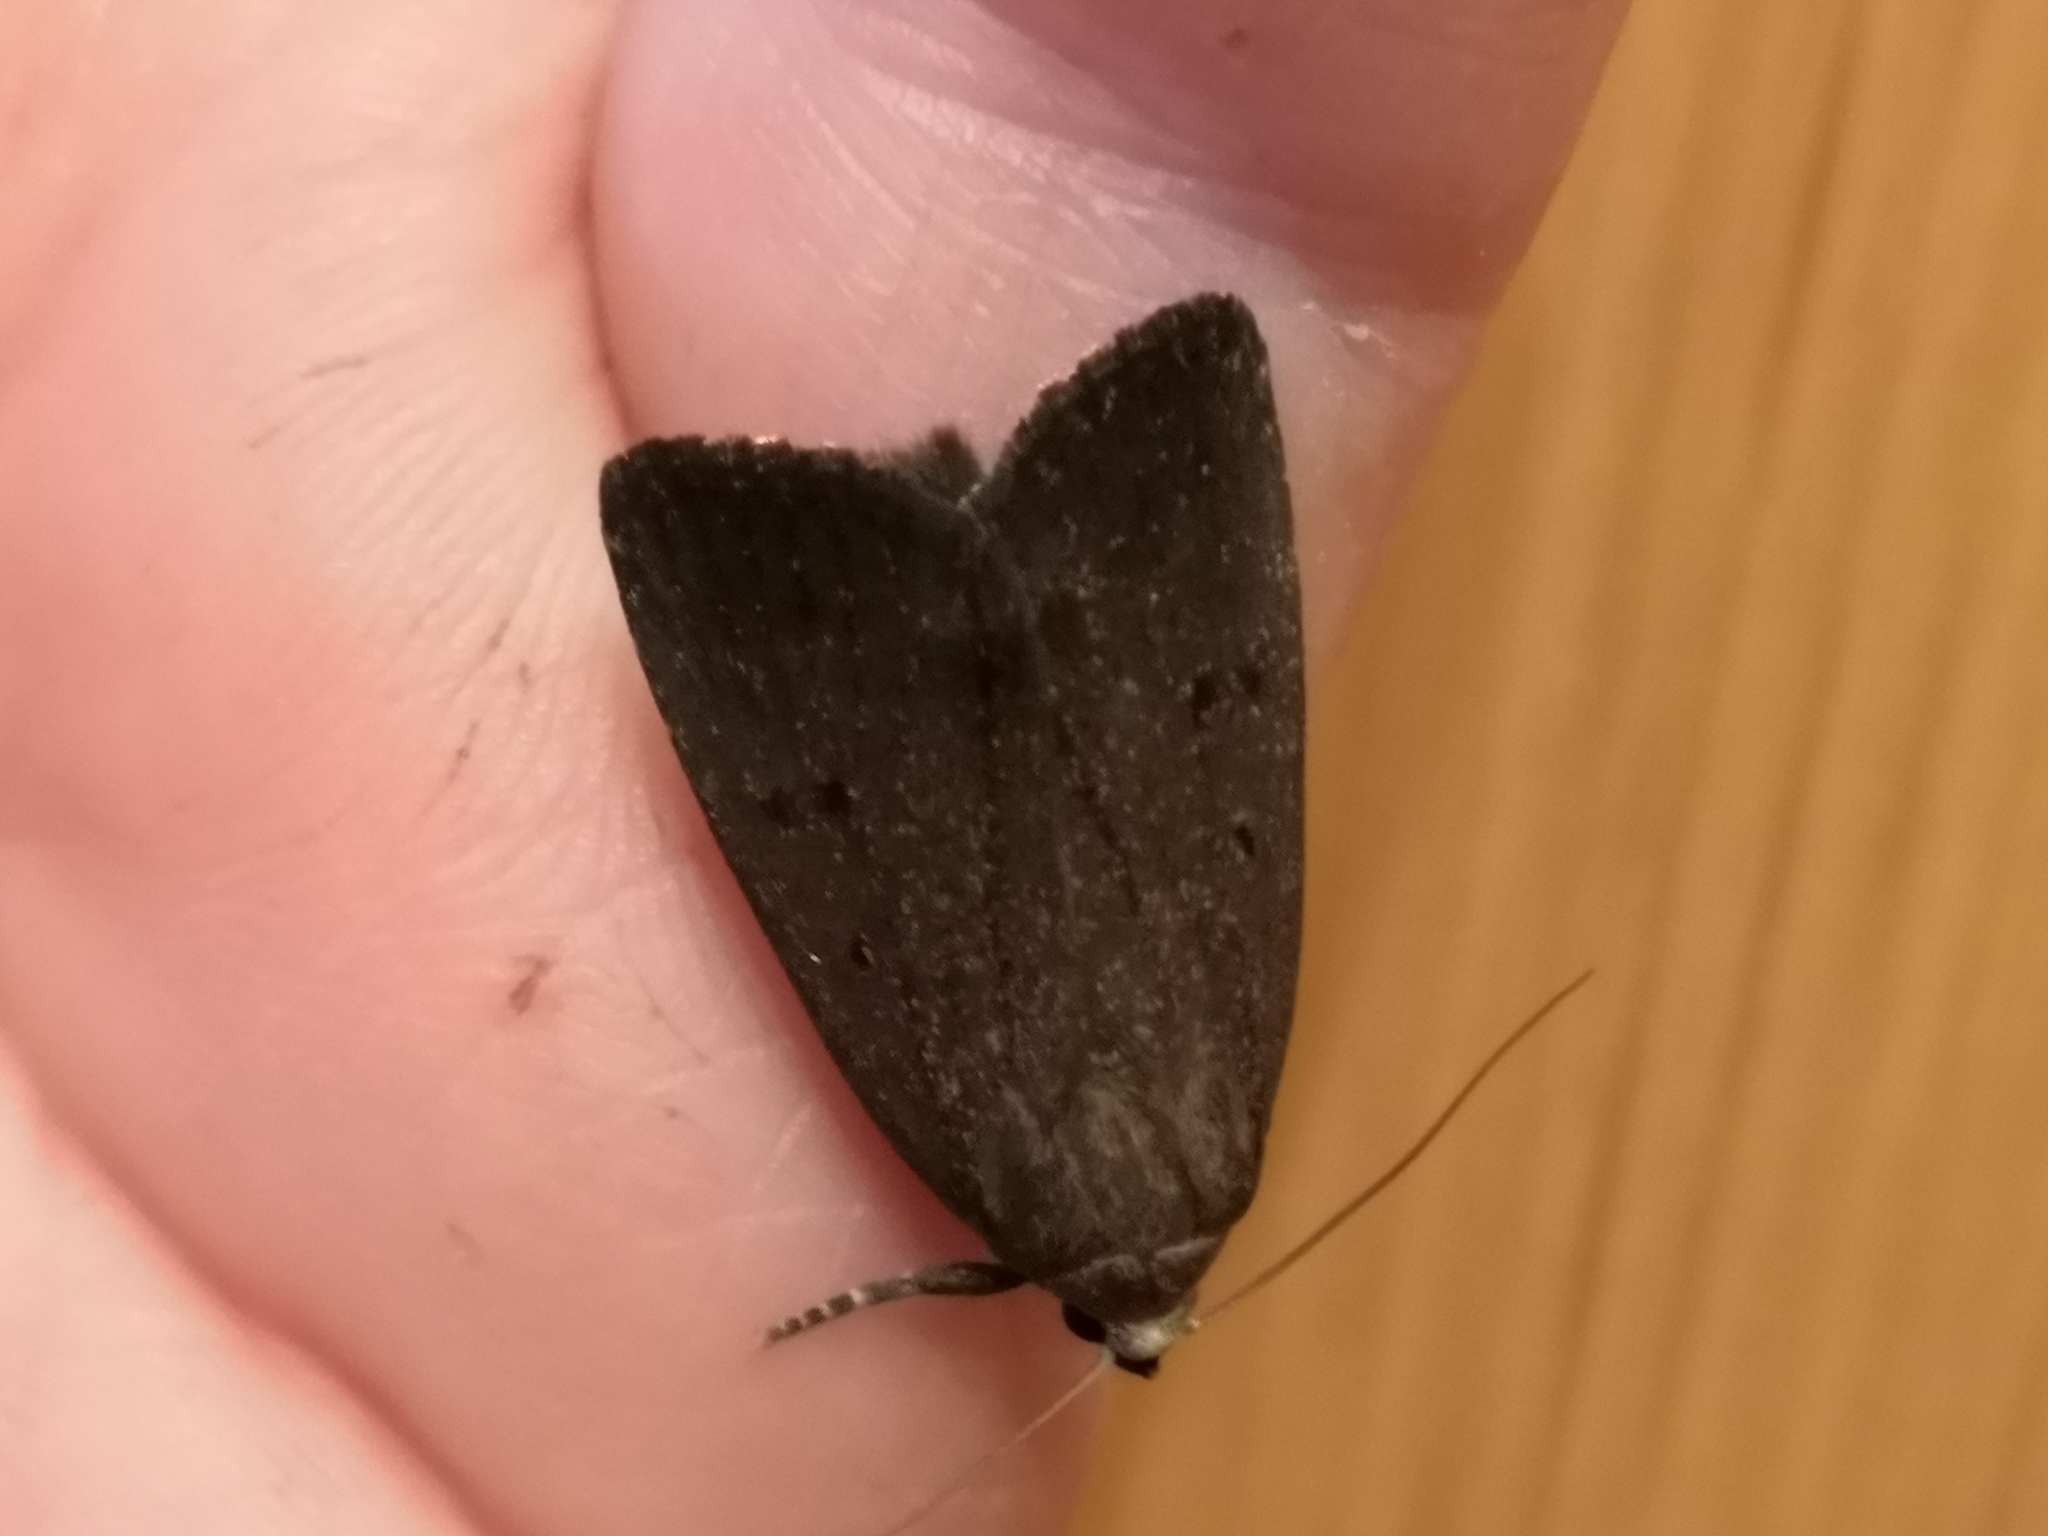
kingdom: Animalia
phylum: Arthropoda
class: Insecta
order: Lepidoptera
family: Noctuidae
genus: Amphipyra
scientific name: Amphipyra tragopoginis
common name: Mouse moth
